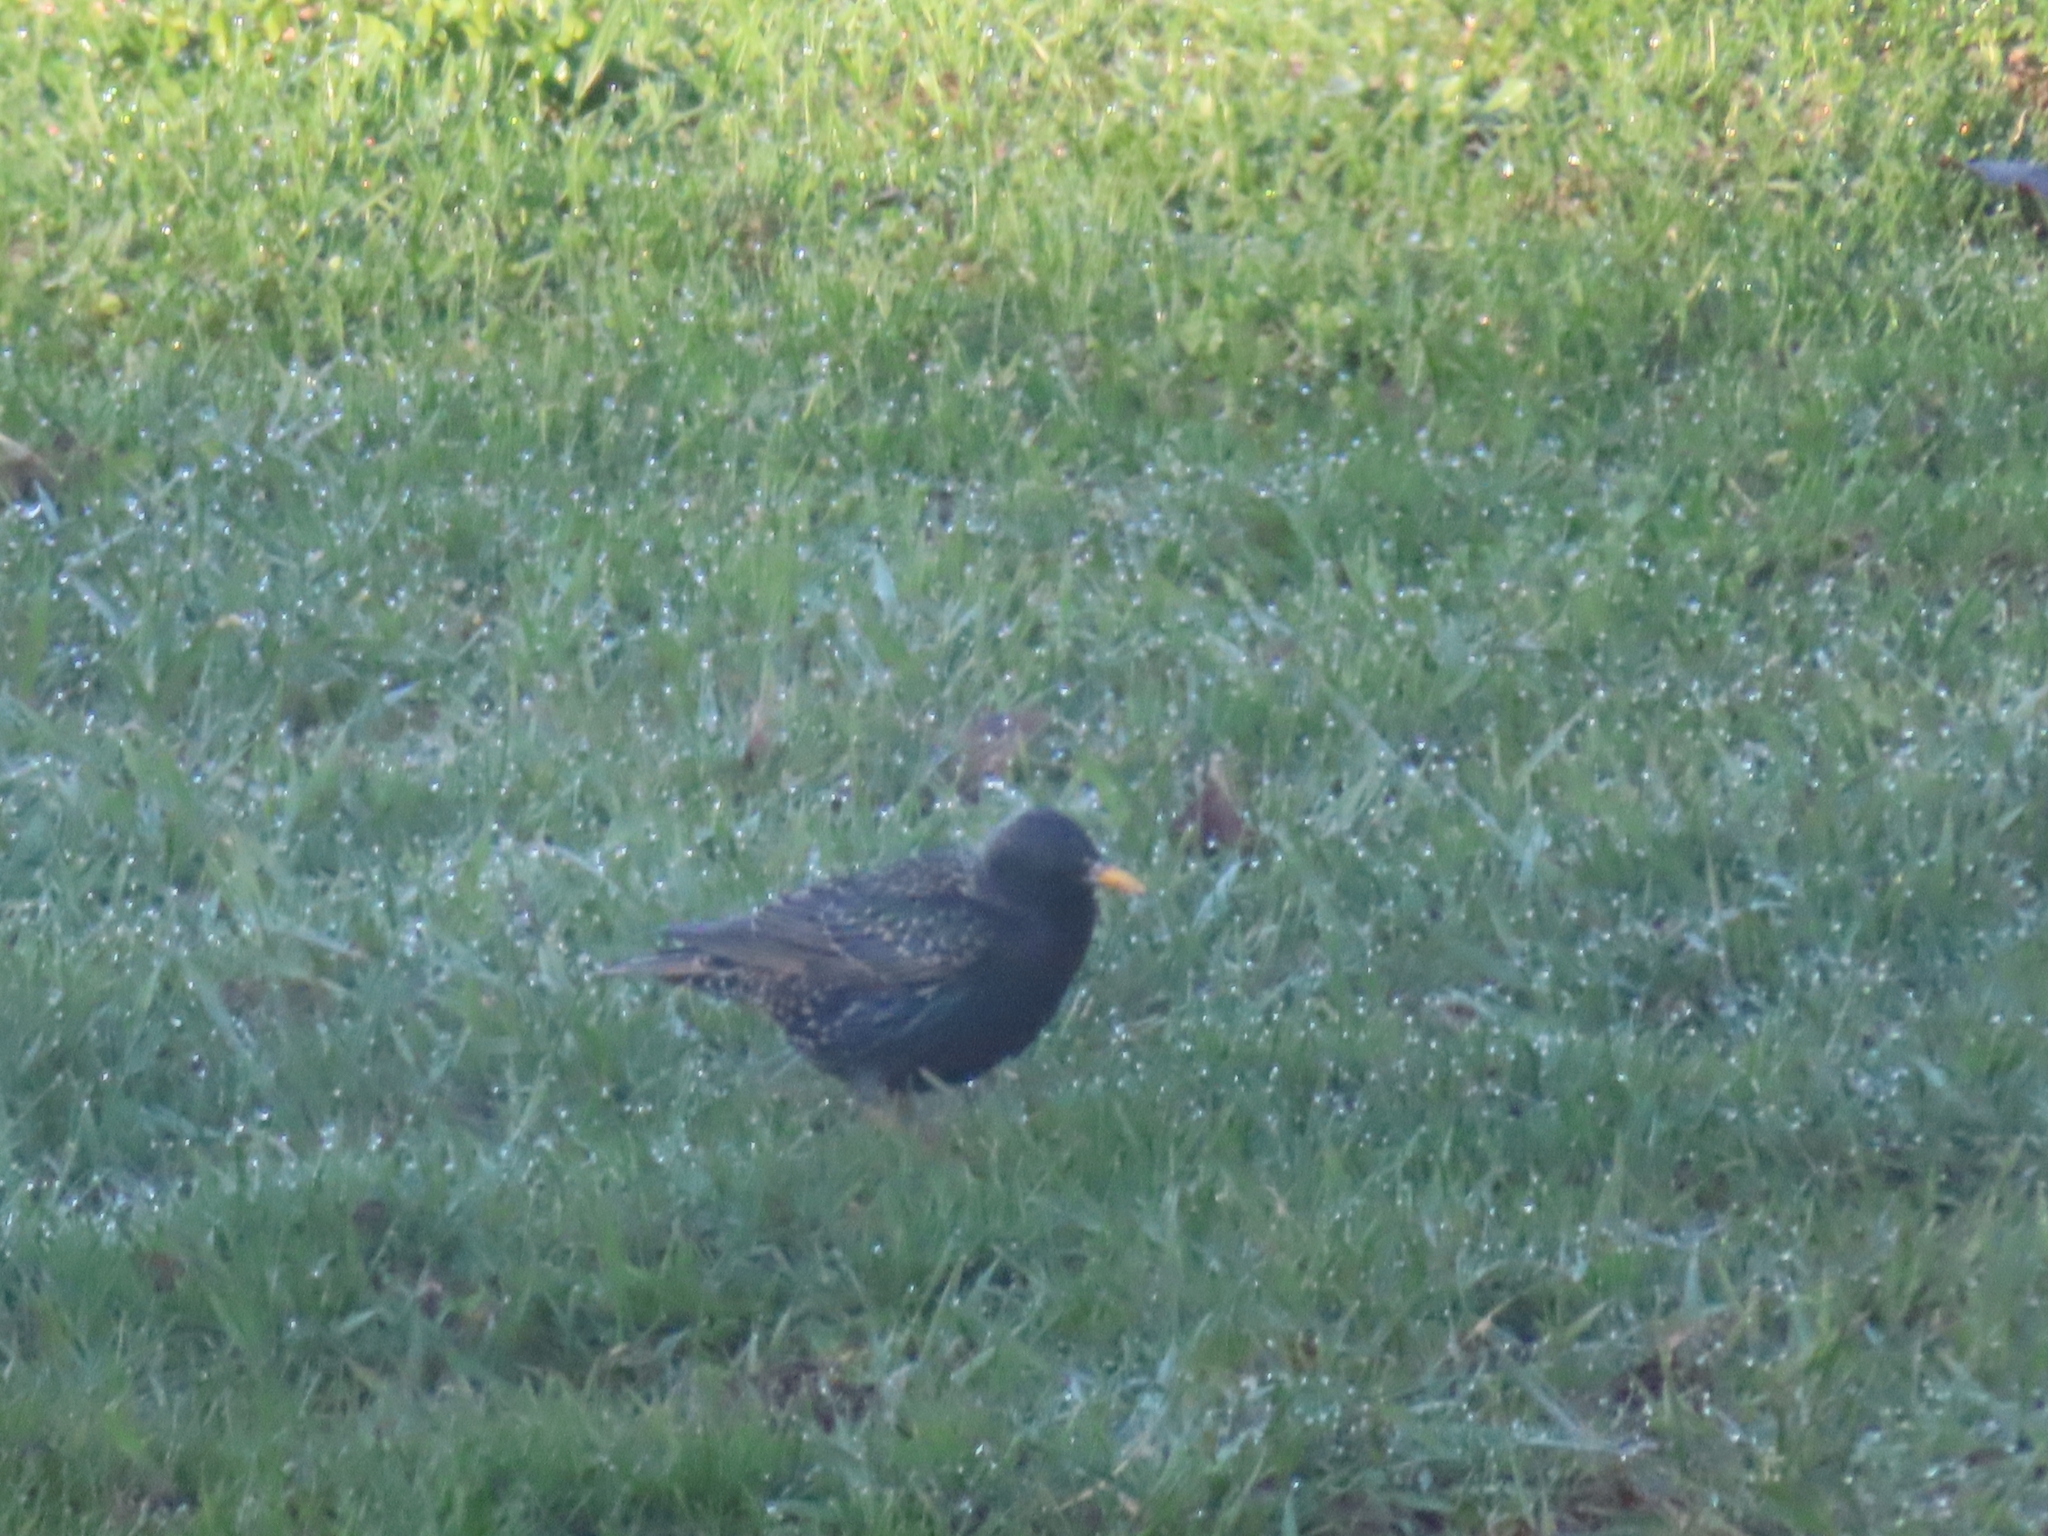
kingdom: Animalia
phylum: Chordata
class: Aves
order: Piciformes
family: Picidae
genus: Colaptes
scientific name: Colaptes auratus
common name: Northern flicker
